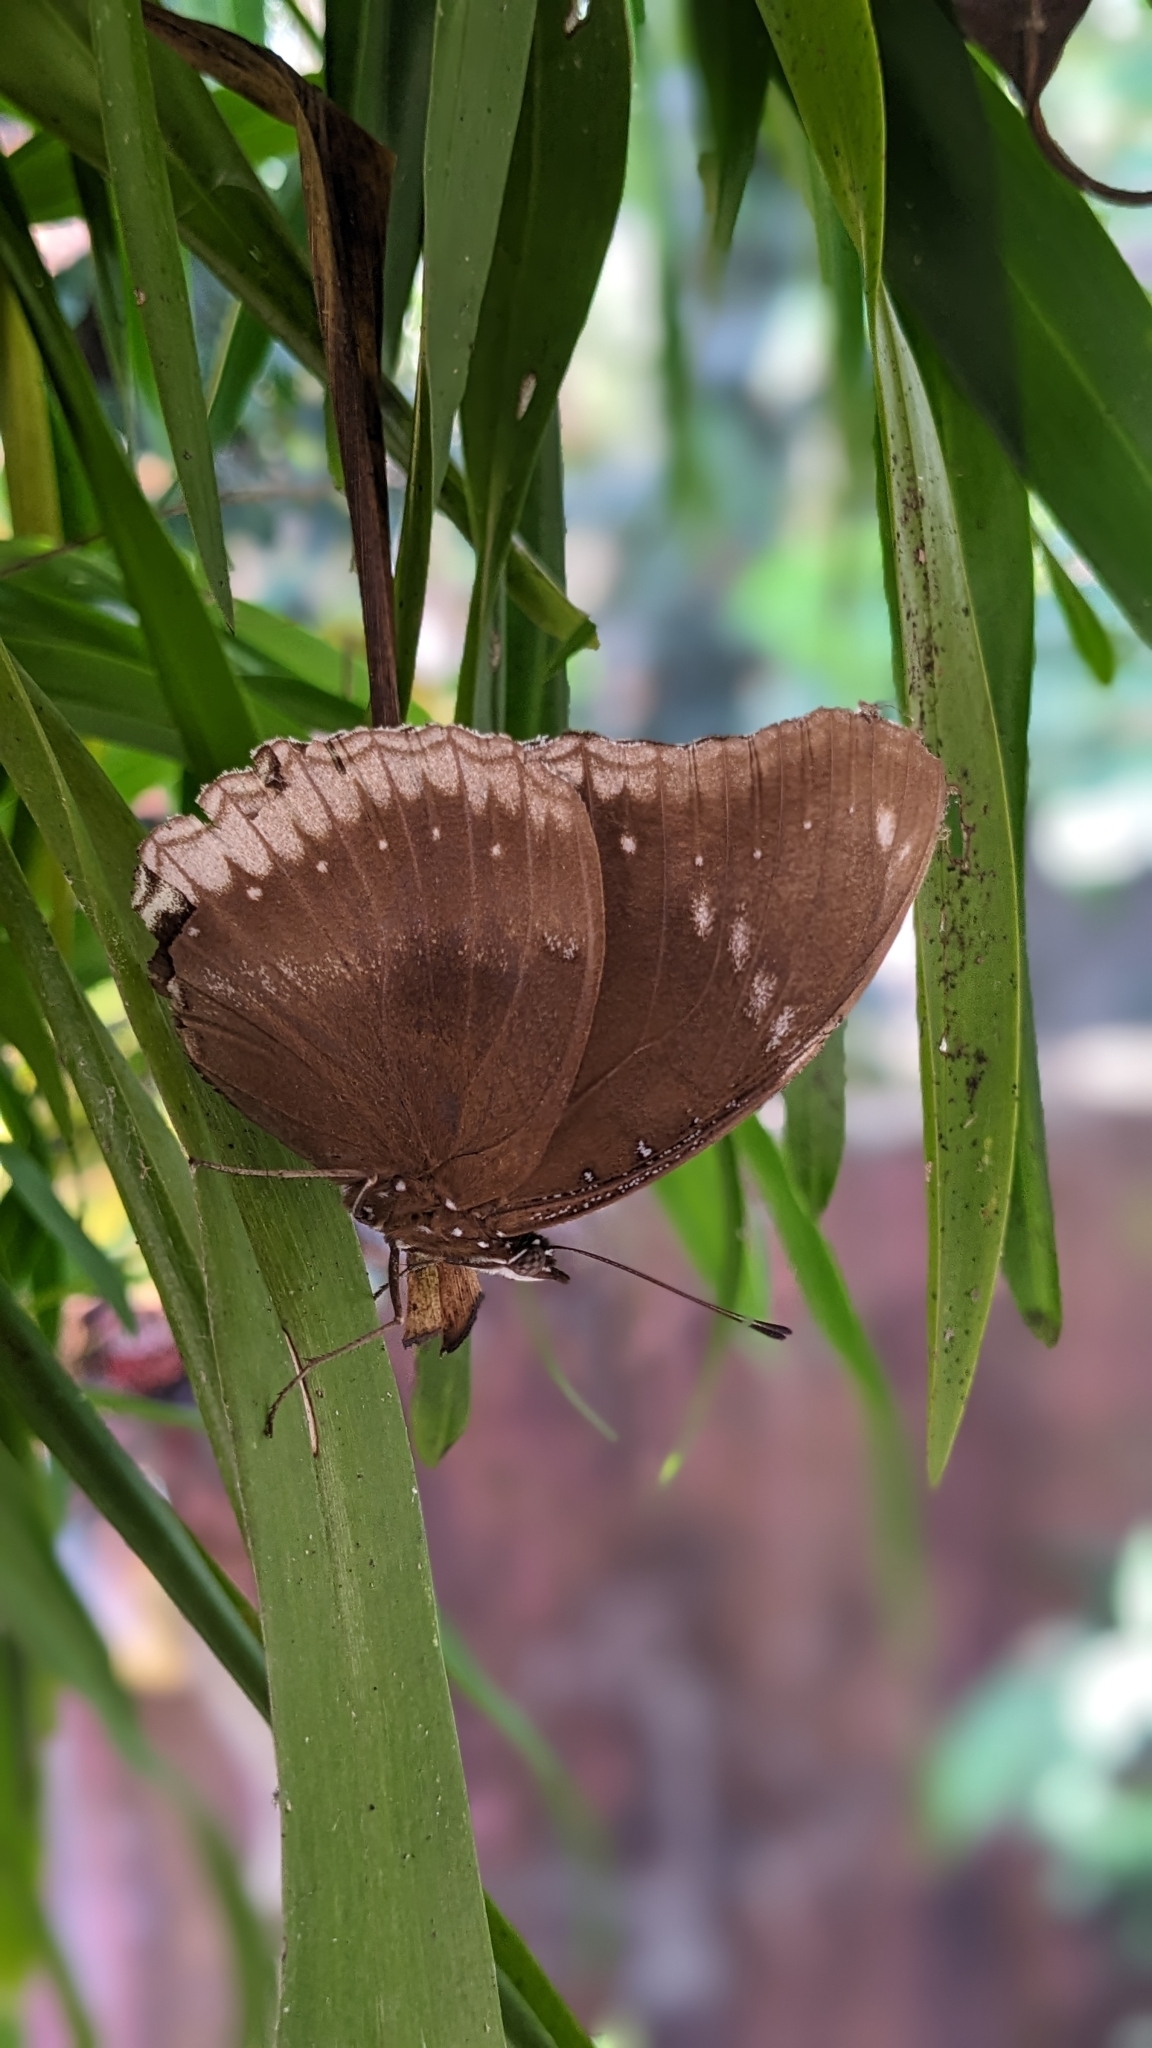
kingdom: Animalia
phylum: Arthropoda
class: Insecta
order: Lepidoptera
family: Nymphalidae
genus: Hypolimnas
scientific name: Hypolimnas bolina
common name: Great eggfly
